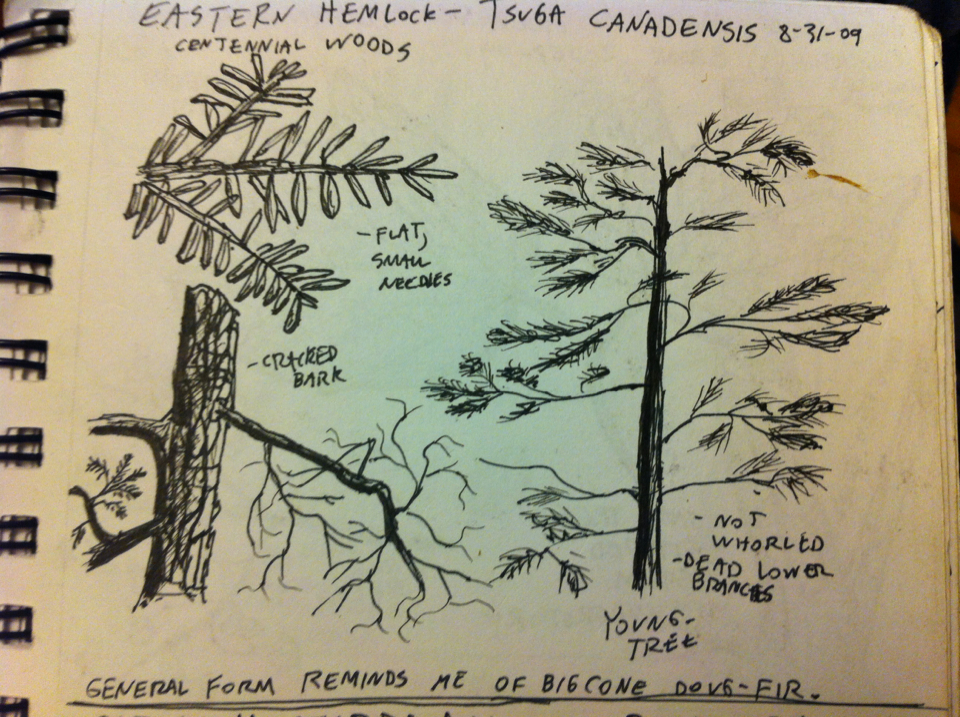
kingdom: Plantae
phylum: Tracheophyta
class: Pinopsida
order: Pinales
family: Pinaceae
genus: Tsuga
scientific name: Tsuga canadensis
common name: Eastern hemlock
